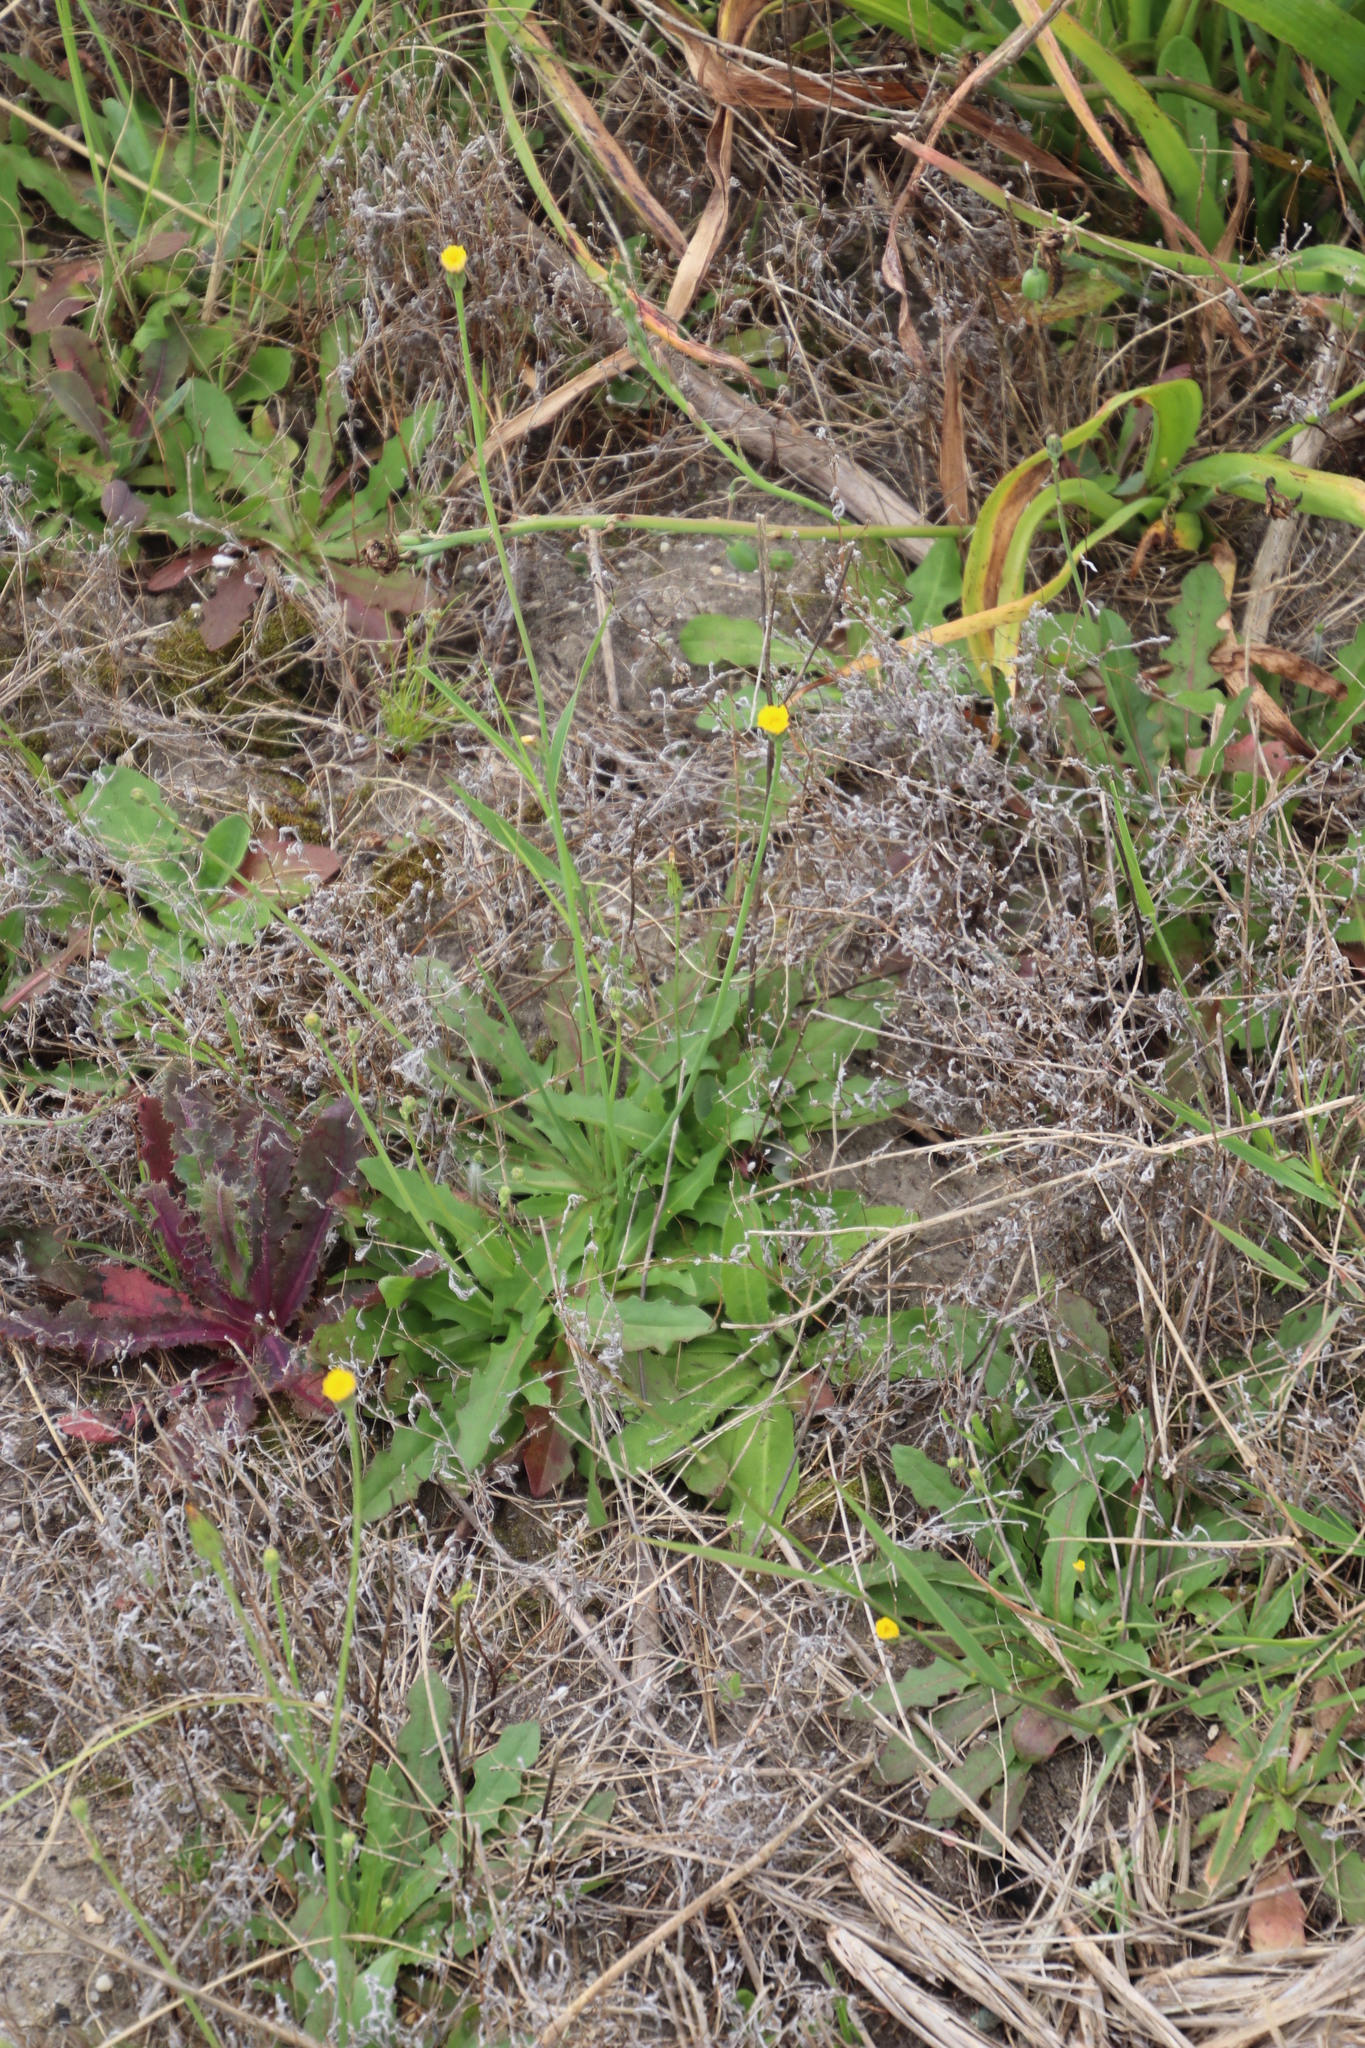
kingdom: Plantae
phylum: Tracheophyta
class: Magnoliopsida
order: Asterales
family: Asteraceae
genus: Hypochaeris
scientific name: Hypochaeris radicata
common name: Flatweed
